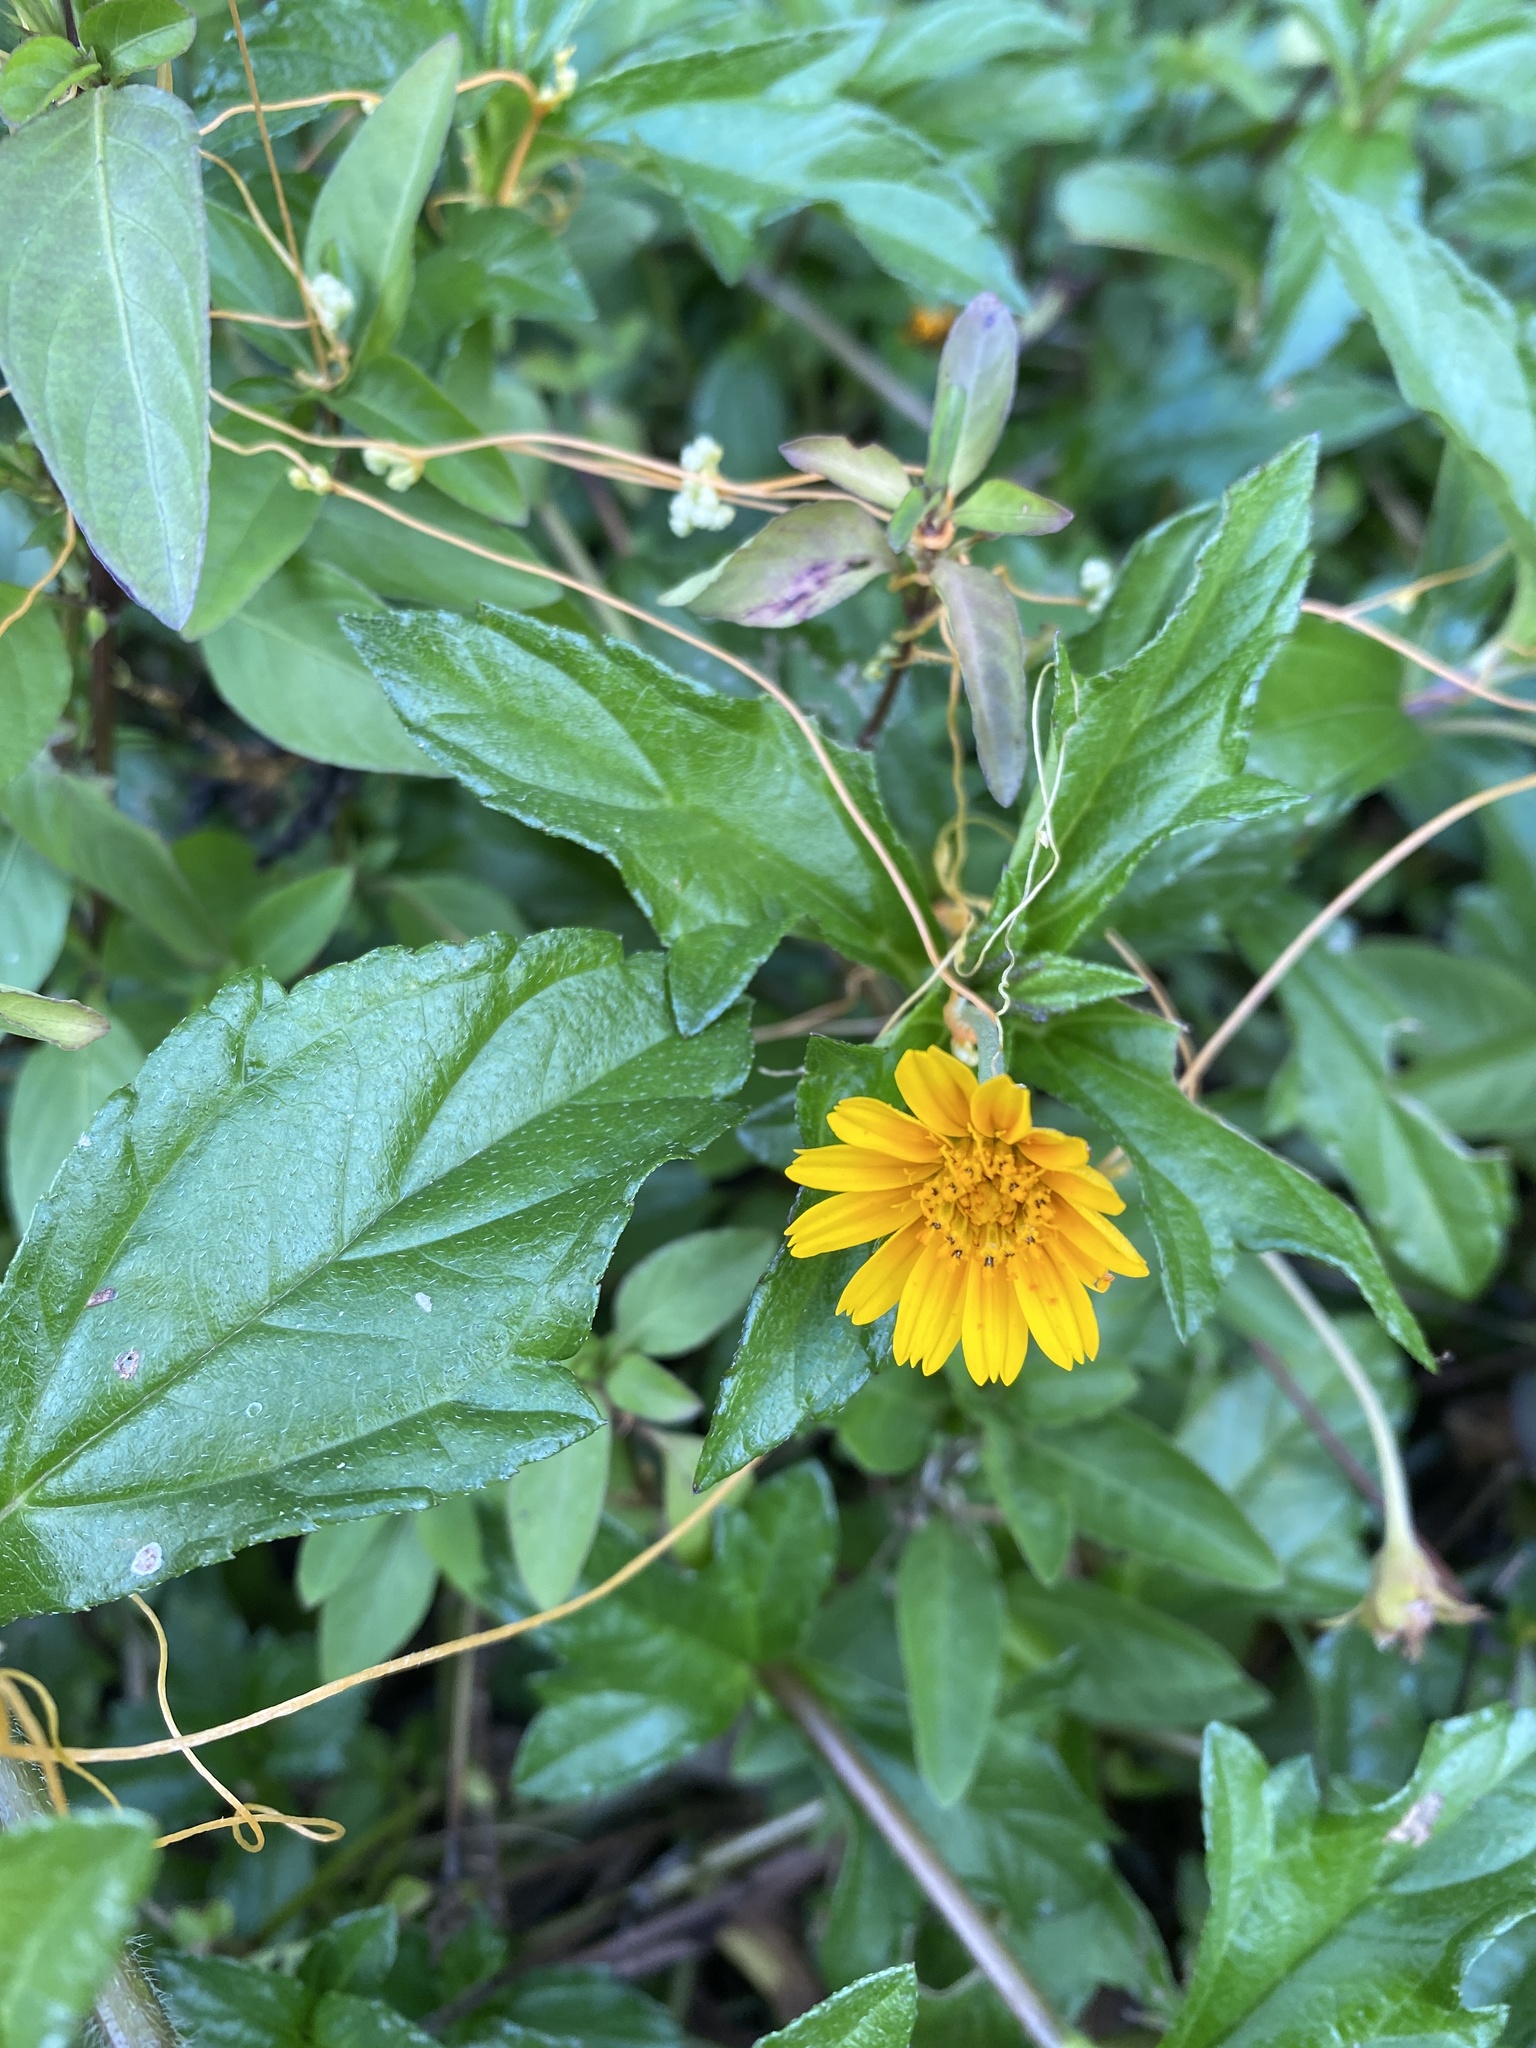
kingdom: Plantae
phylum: Tracheophyta
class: Magnoliopsida
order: Asterales
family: Asteraceae
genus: Sphagneticola
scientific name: Sphagneticola trilobata
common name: Bay biscayne creeping-oxeye
